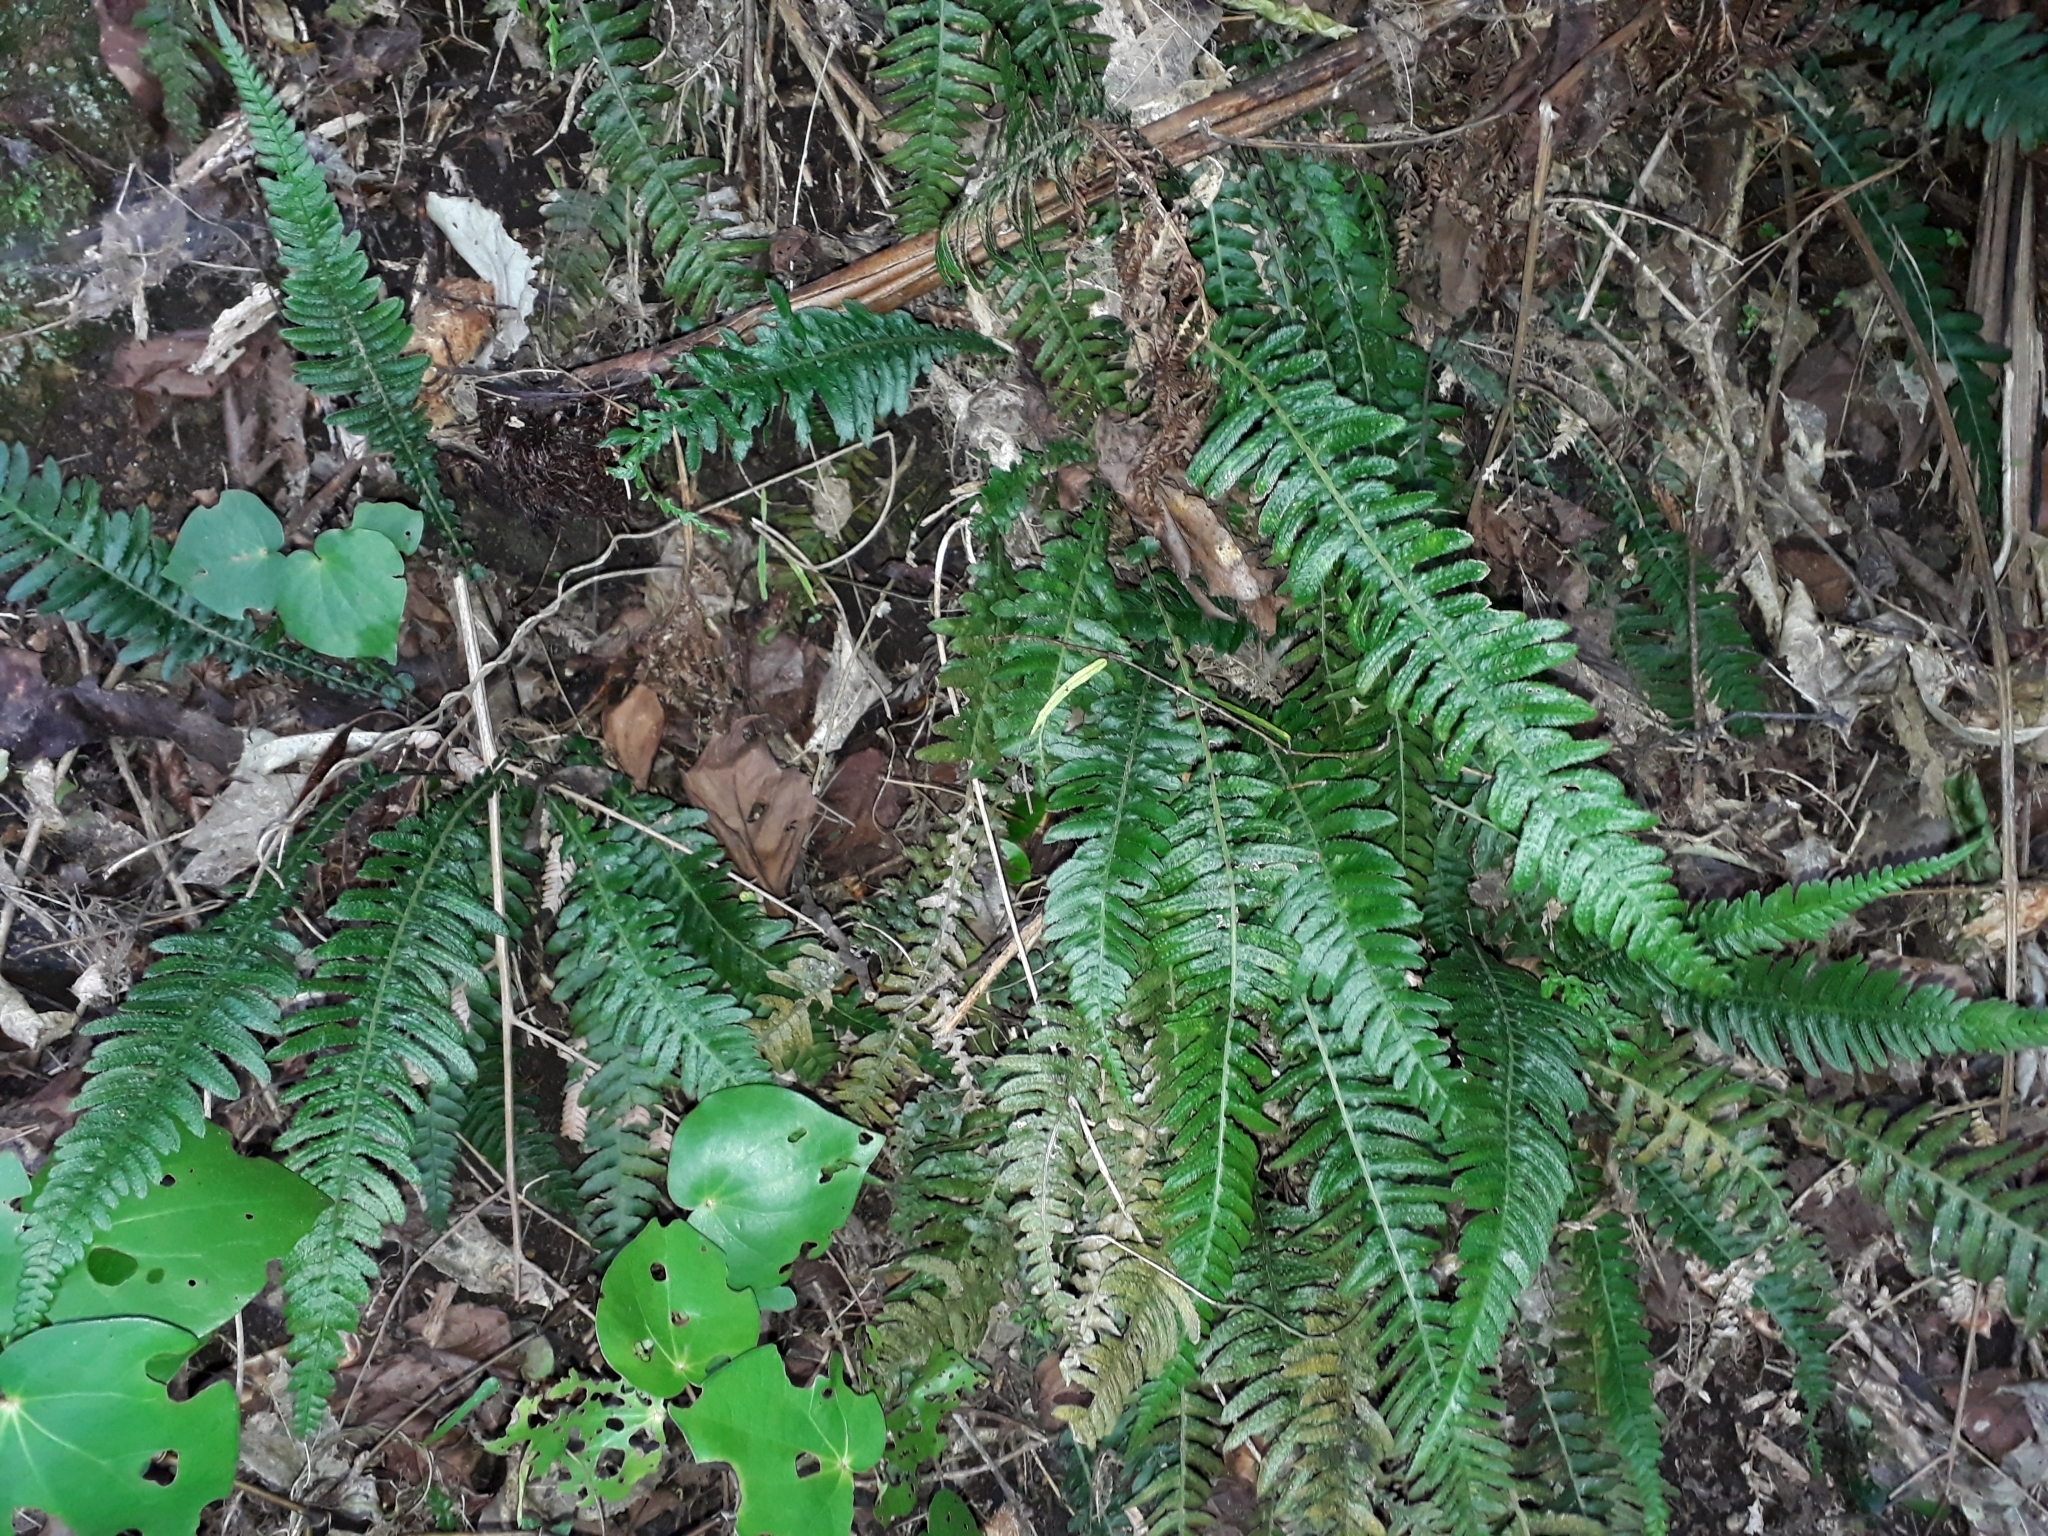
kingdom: Plantae
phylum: Tracheophyta
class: Polypodiopsida
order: Polypodiales
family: Blechnaceae
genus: Doodia
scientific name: Doodia australis
